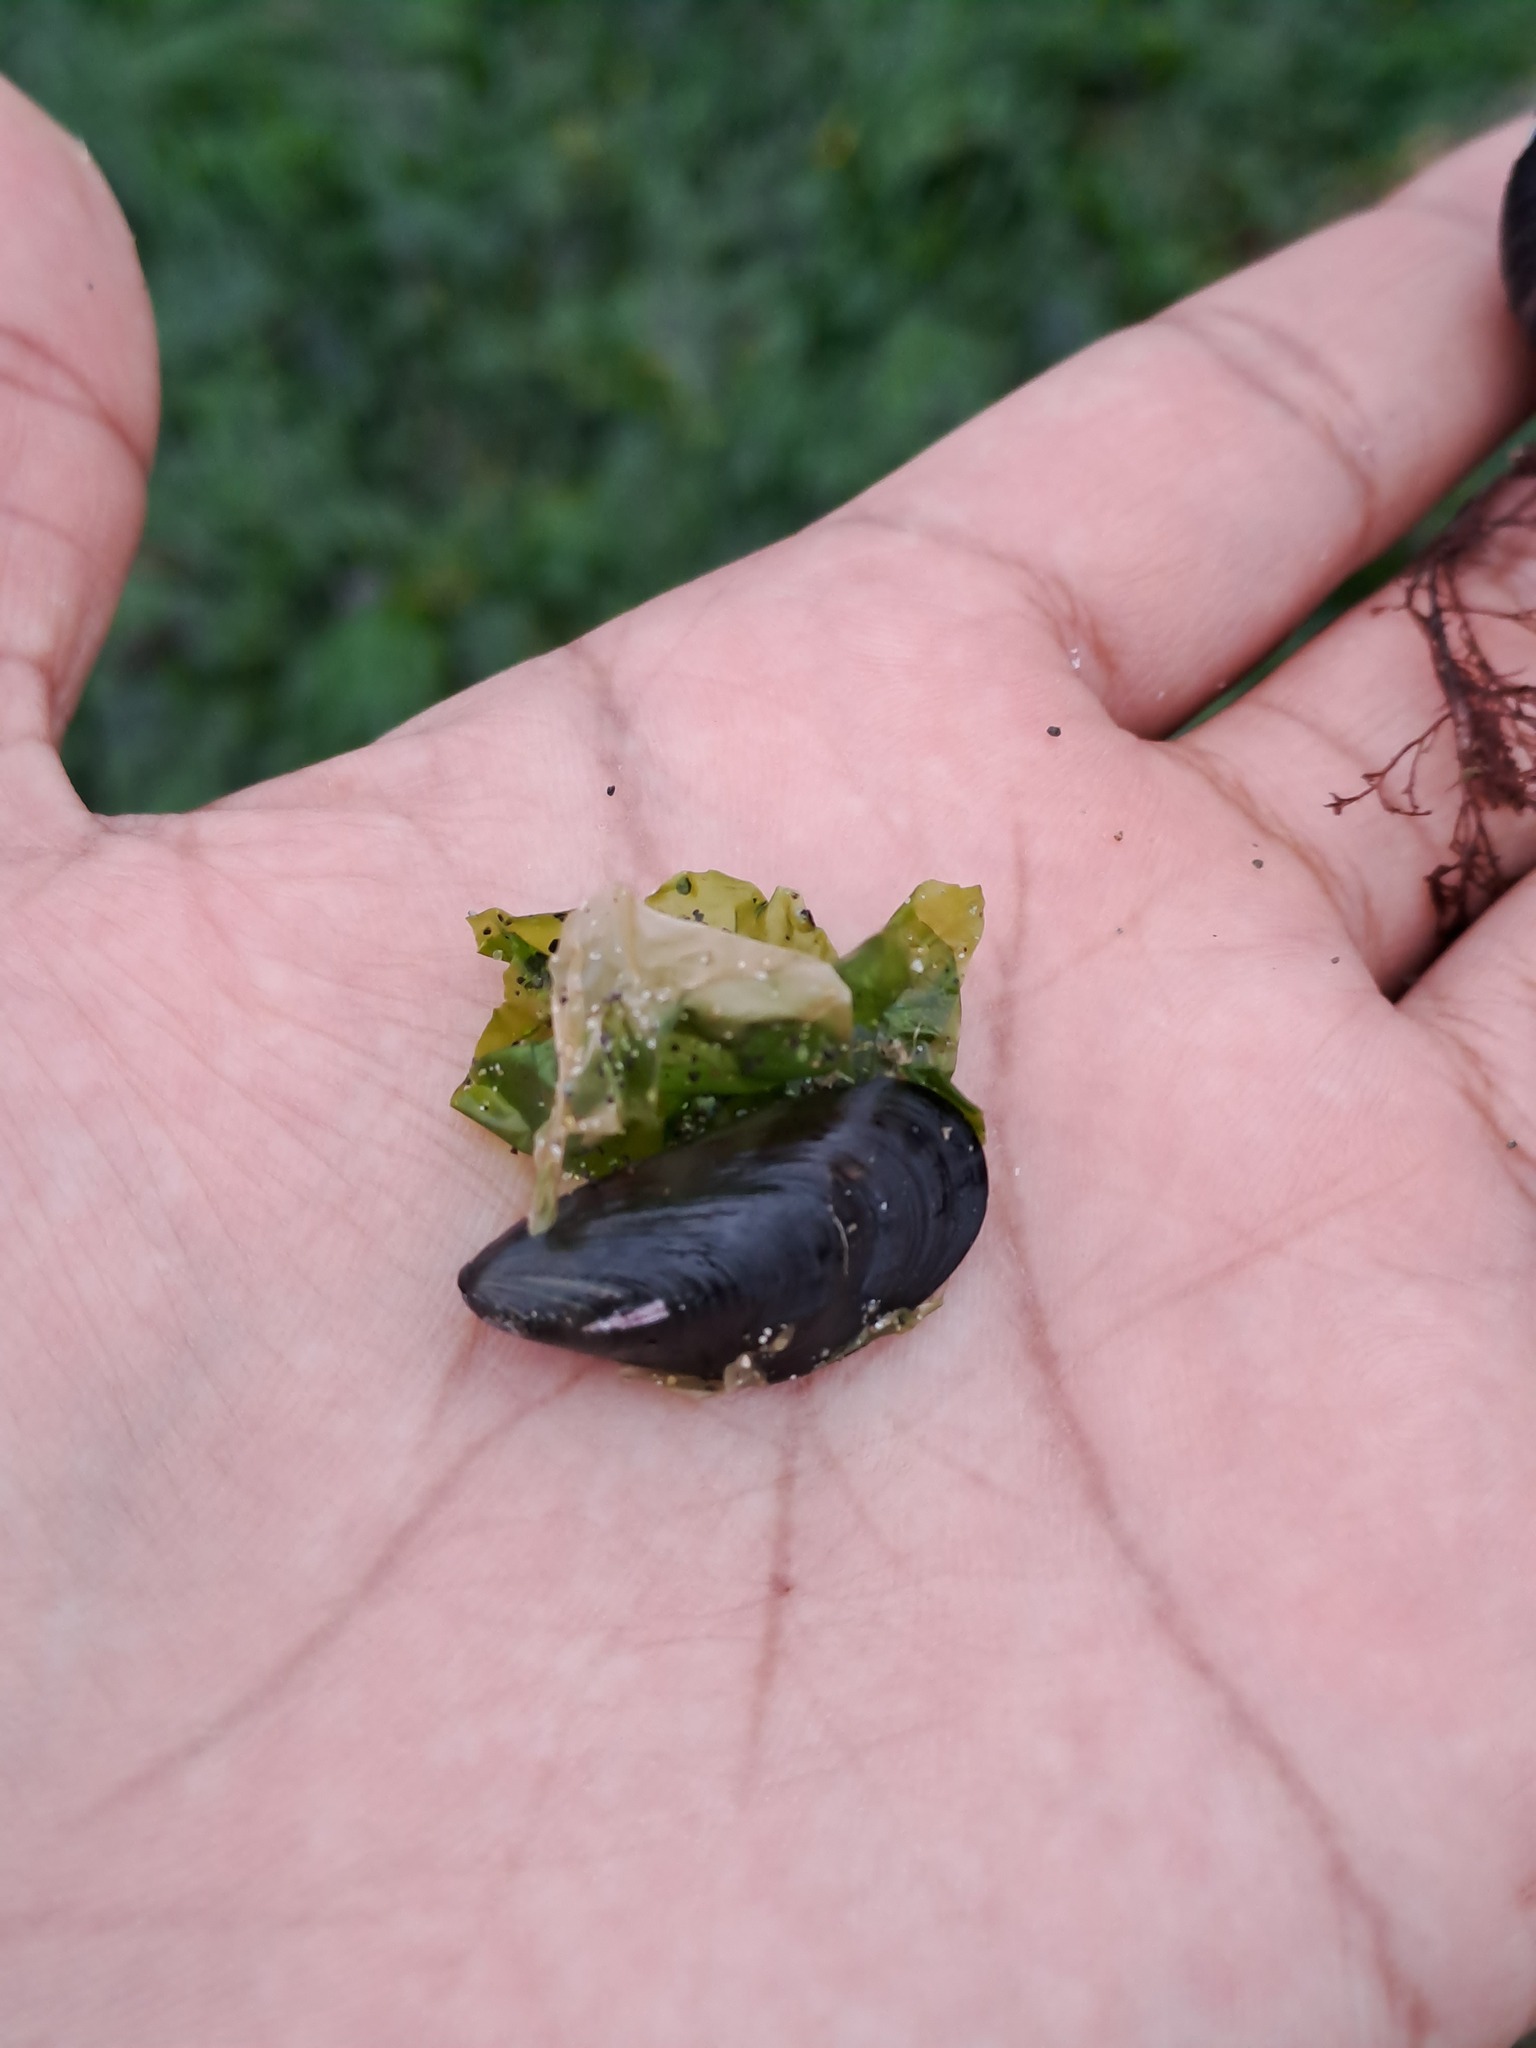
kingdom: Animalia
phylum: Mollusca
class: Bivalvia
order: Mytilida
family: Mytilidae
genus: Semimytilus
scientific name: Semimytilus patagonicus
